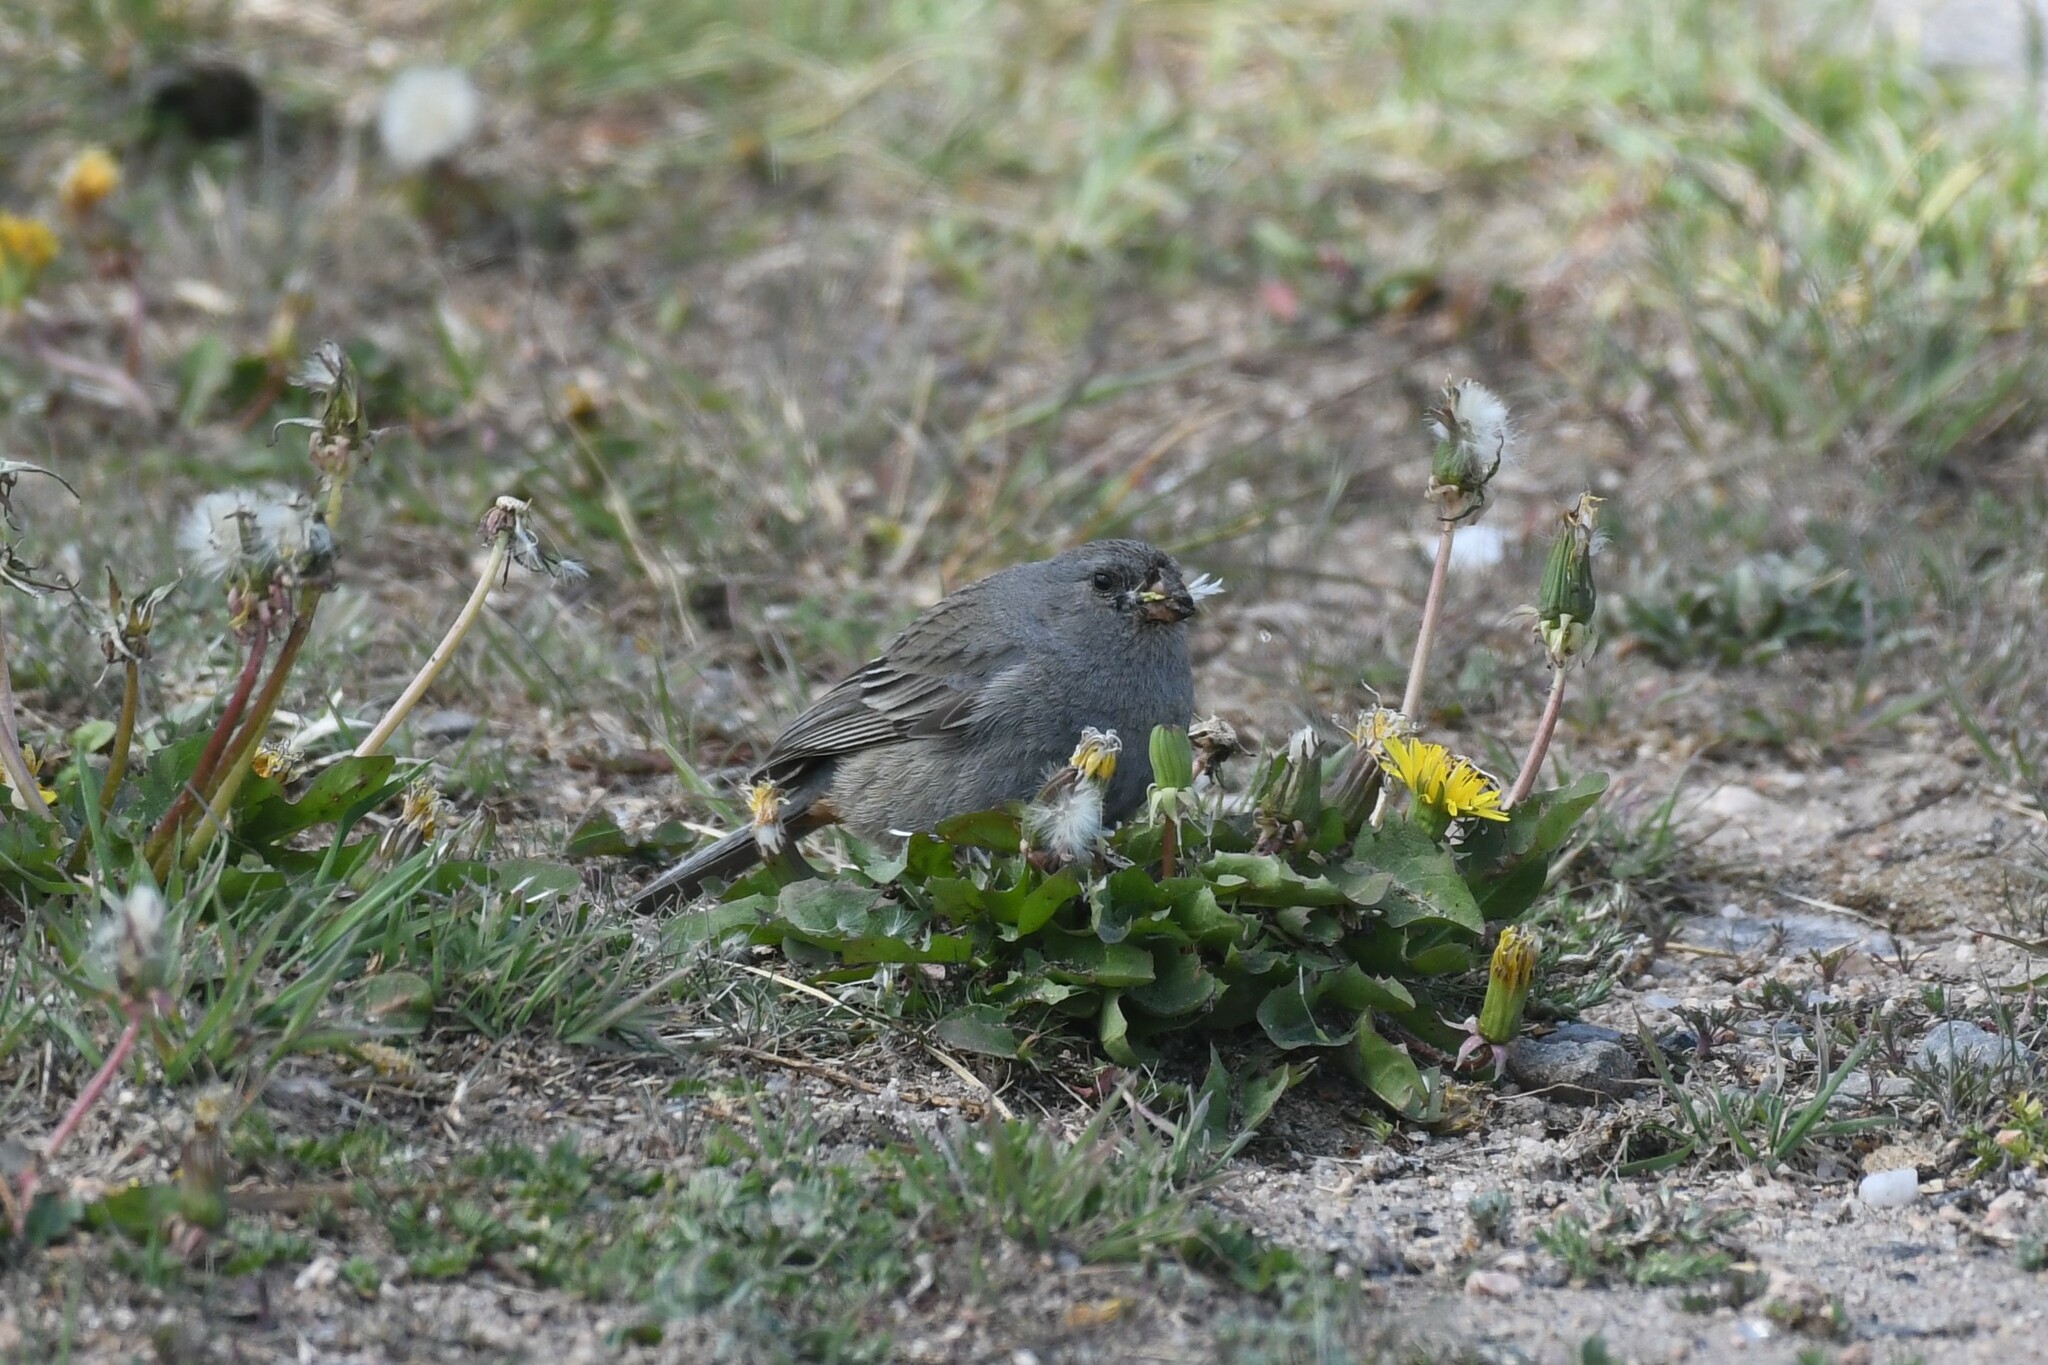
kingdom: Animalia
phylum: Chordata
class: Aves
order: Passeriformes
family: Thraupidae
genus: Catamenia
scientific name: Catamenia inornata
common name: Plain-colored seedeater
